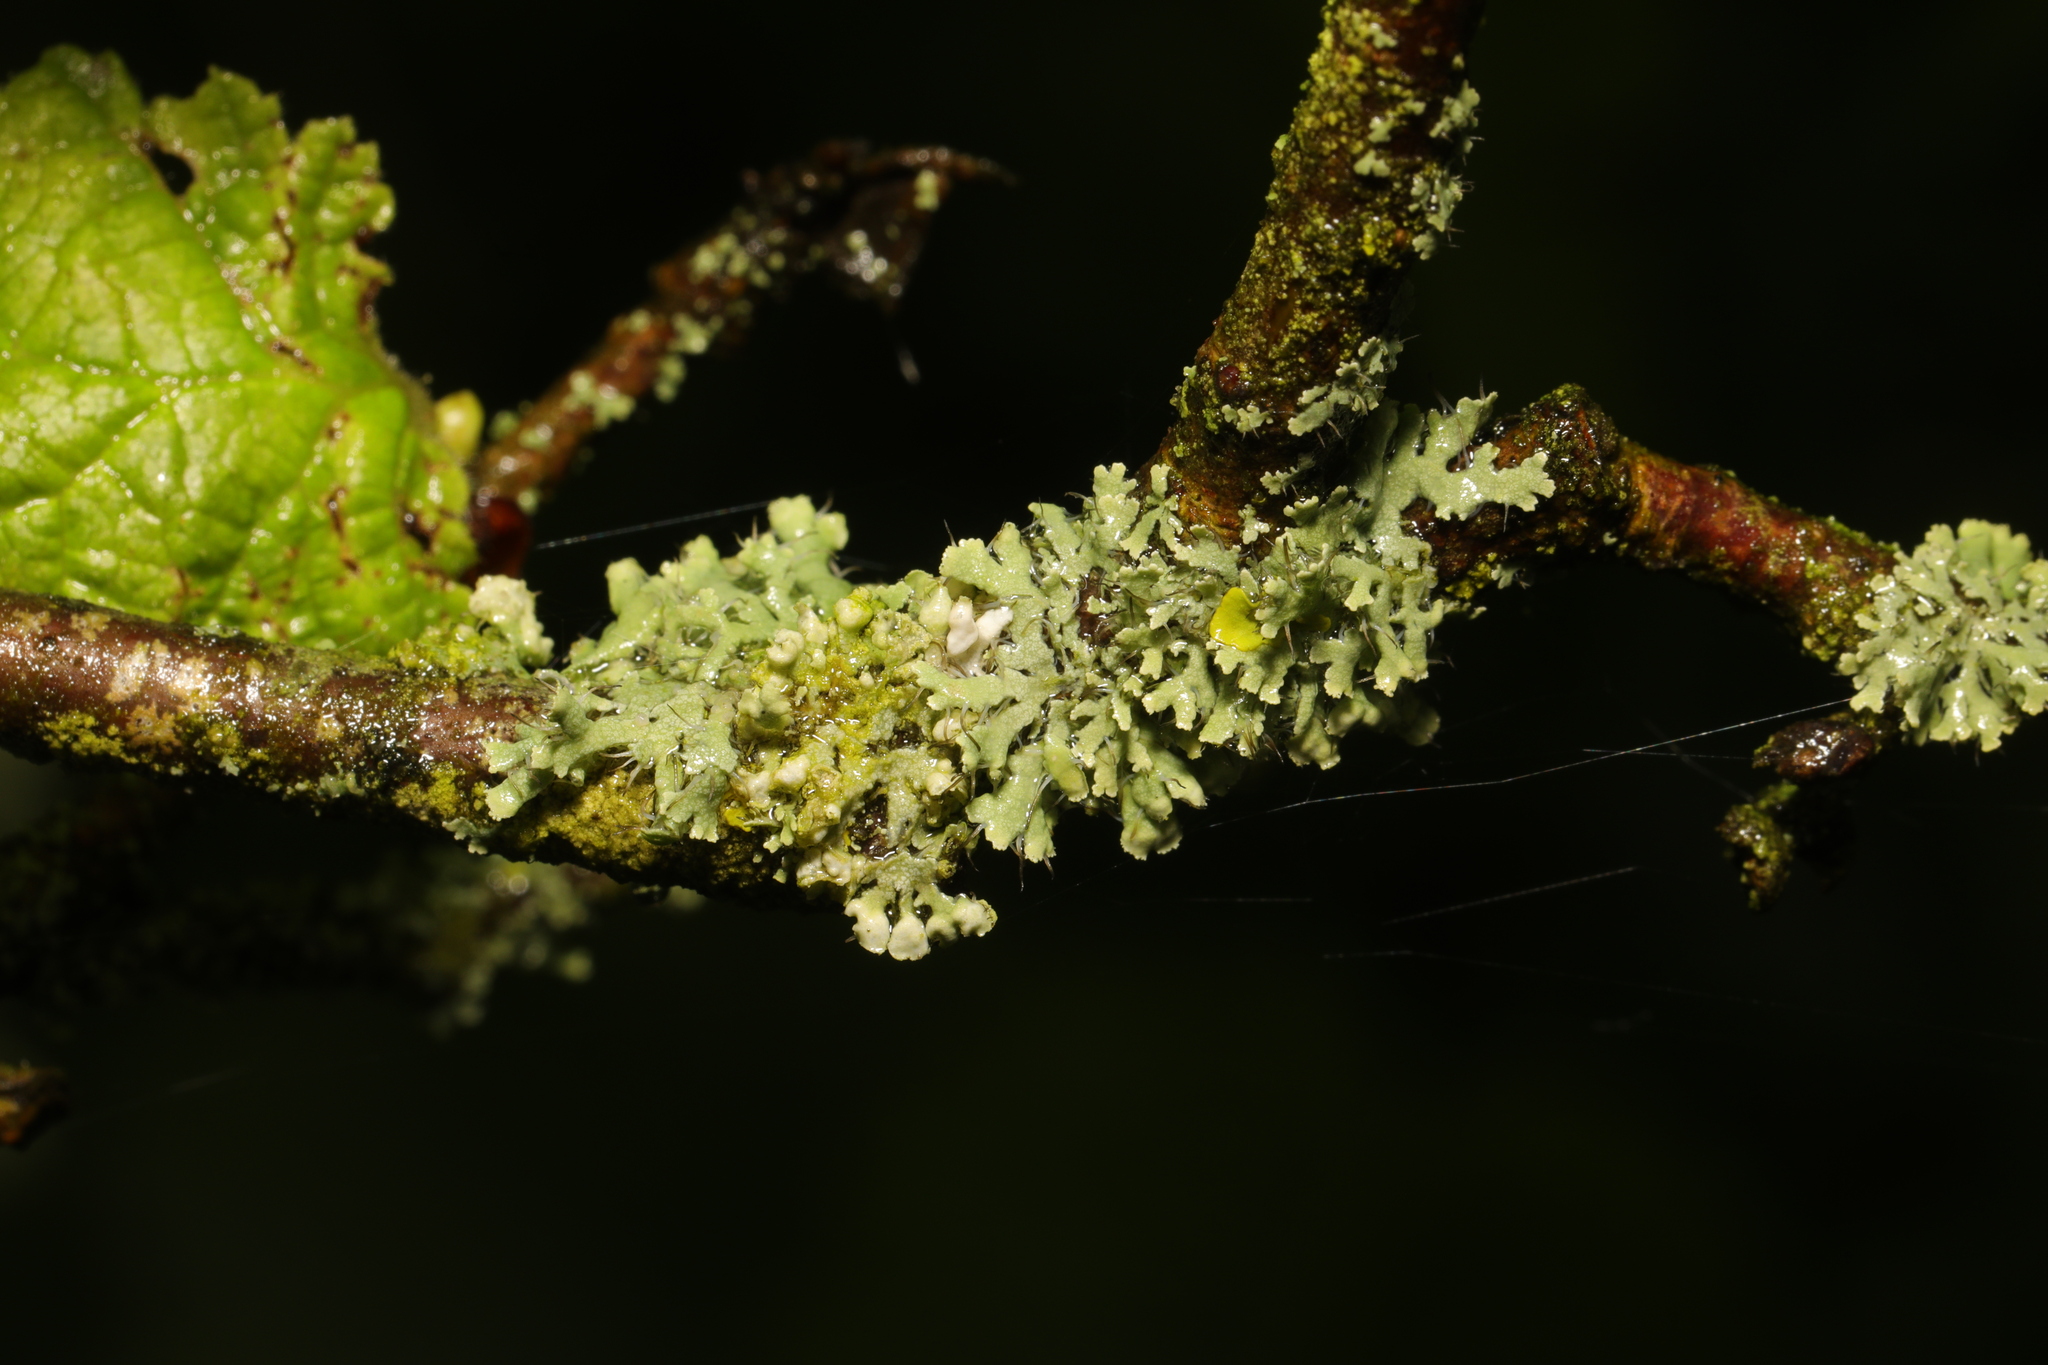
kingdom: Fungi
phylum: Ascomycota
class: Lecanoromycetes
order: Caliciales
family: Physciaceae
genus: Physcia
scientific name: Physcia adscendens
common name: Hooded rosette lichen
